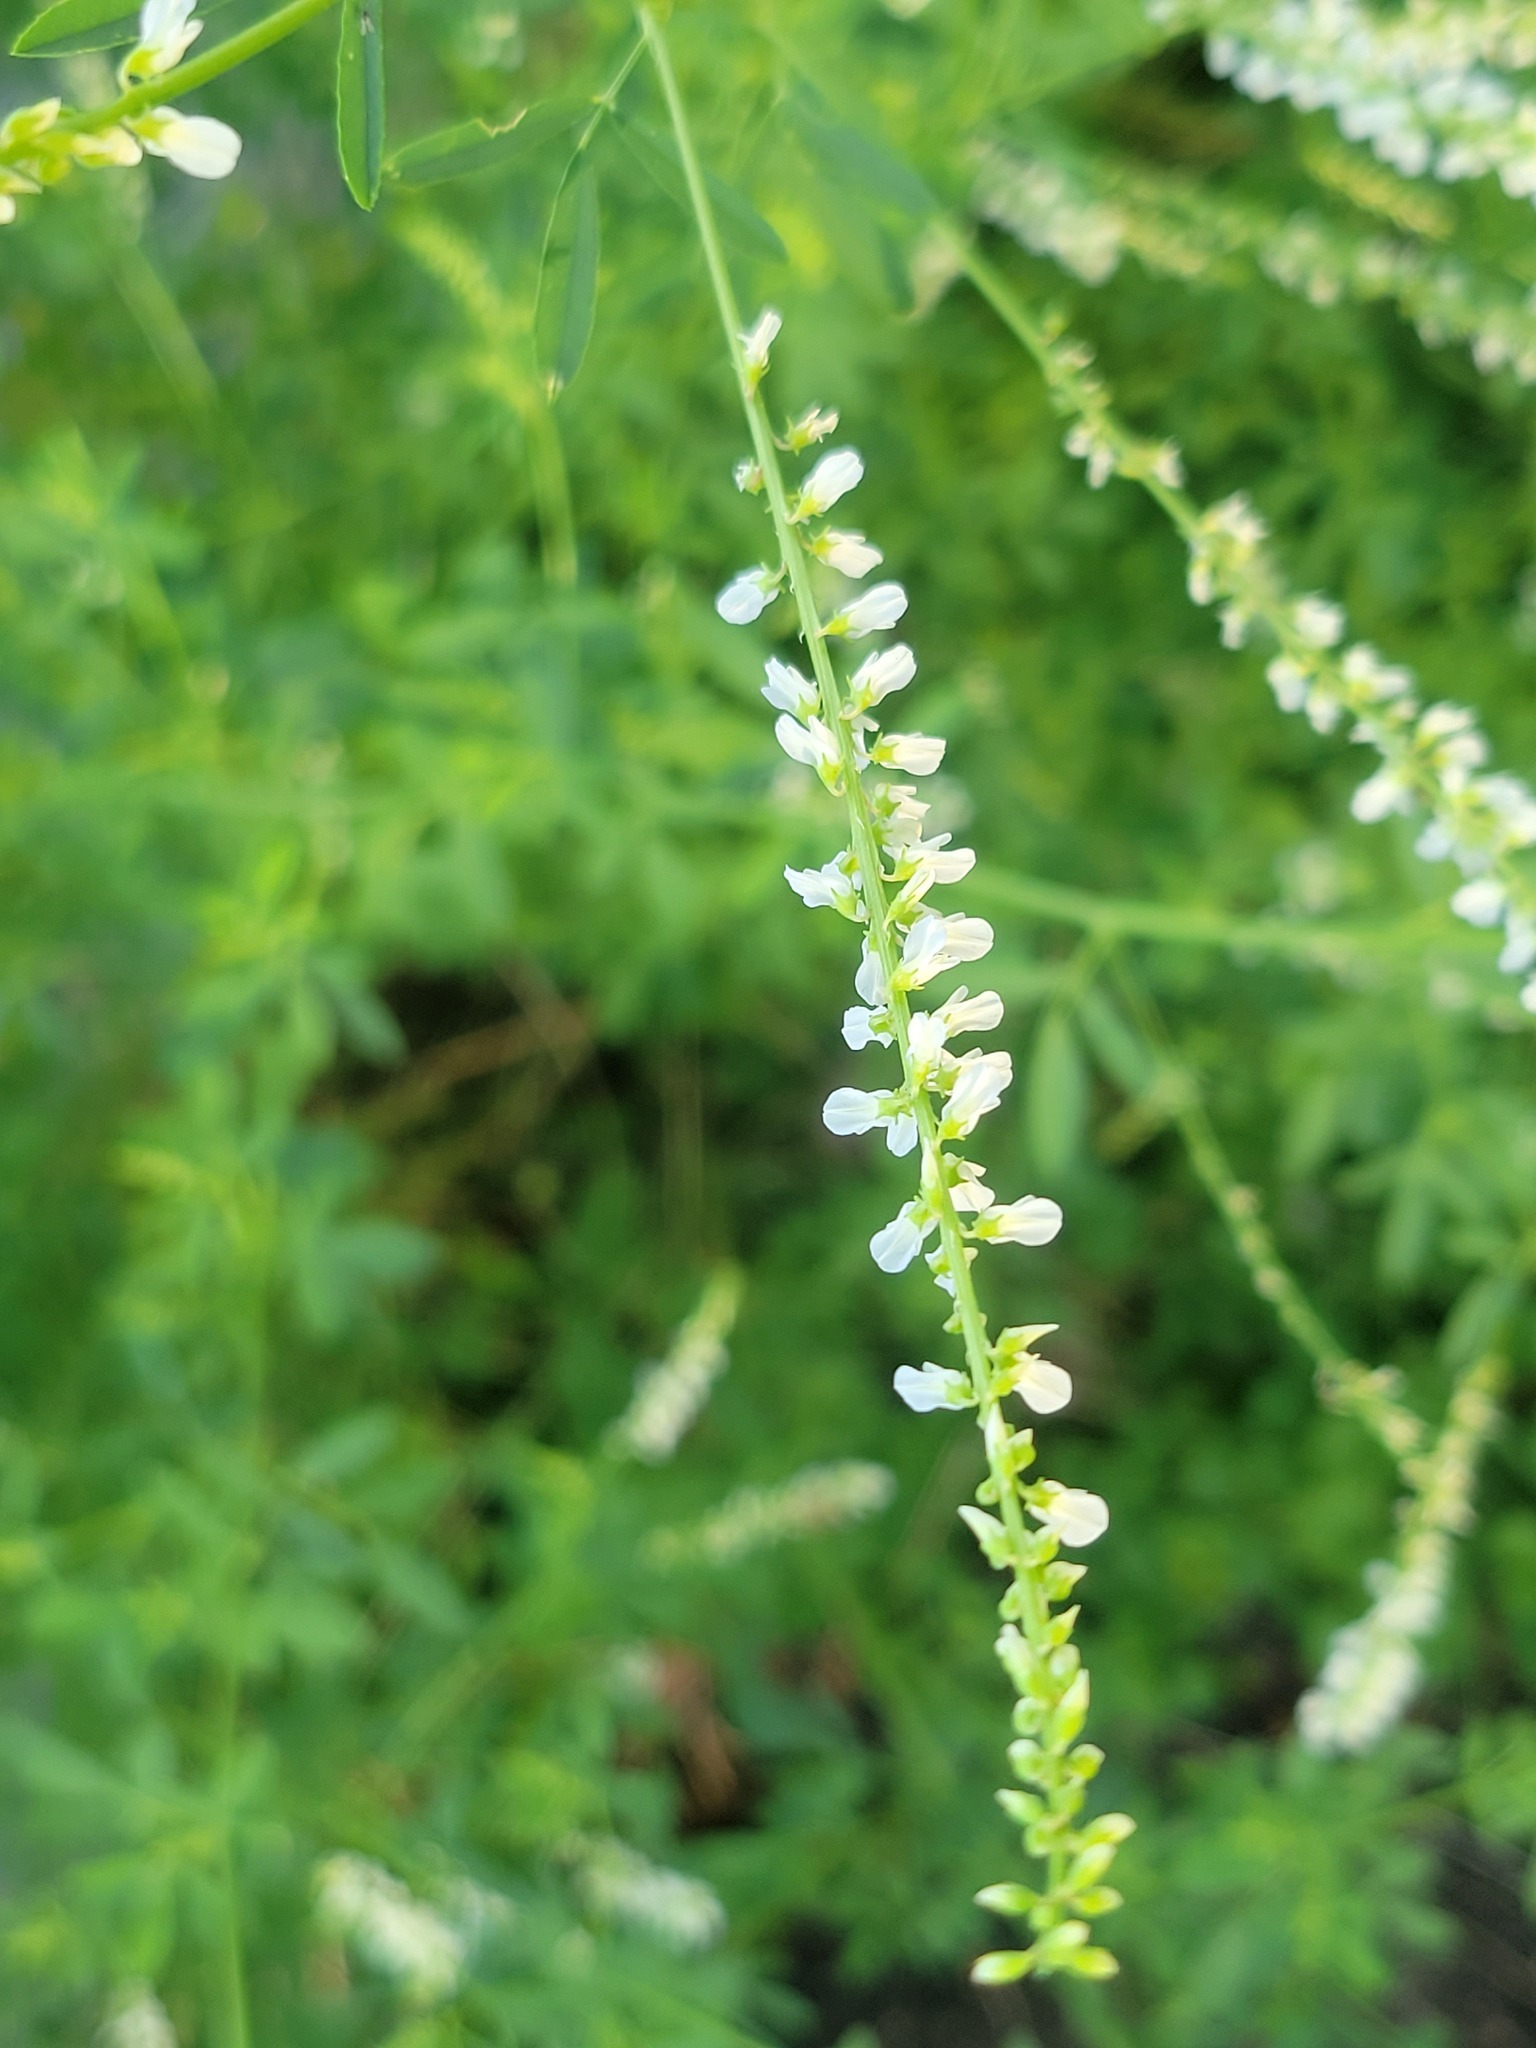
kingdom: Plantae
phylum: Tracheophyta
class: Magnoliopsida
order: Fabales
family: Fabaceae
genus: Melilotus
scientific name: Melilotus albus
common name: White melilot
